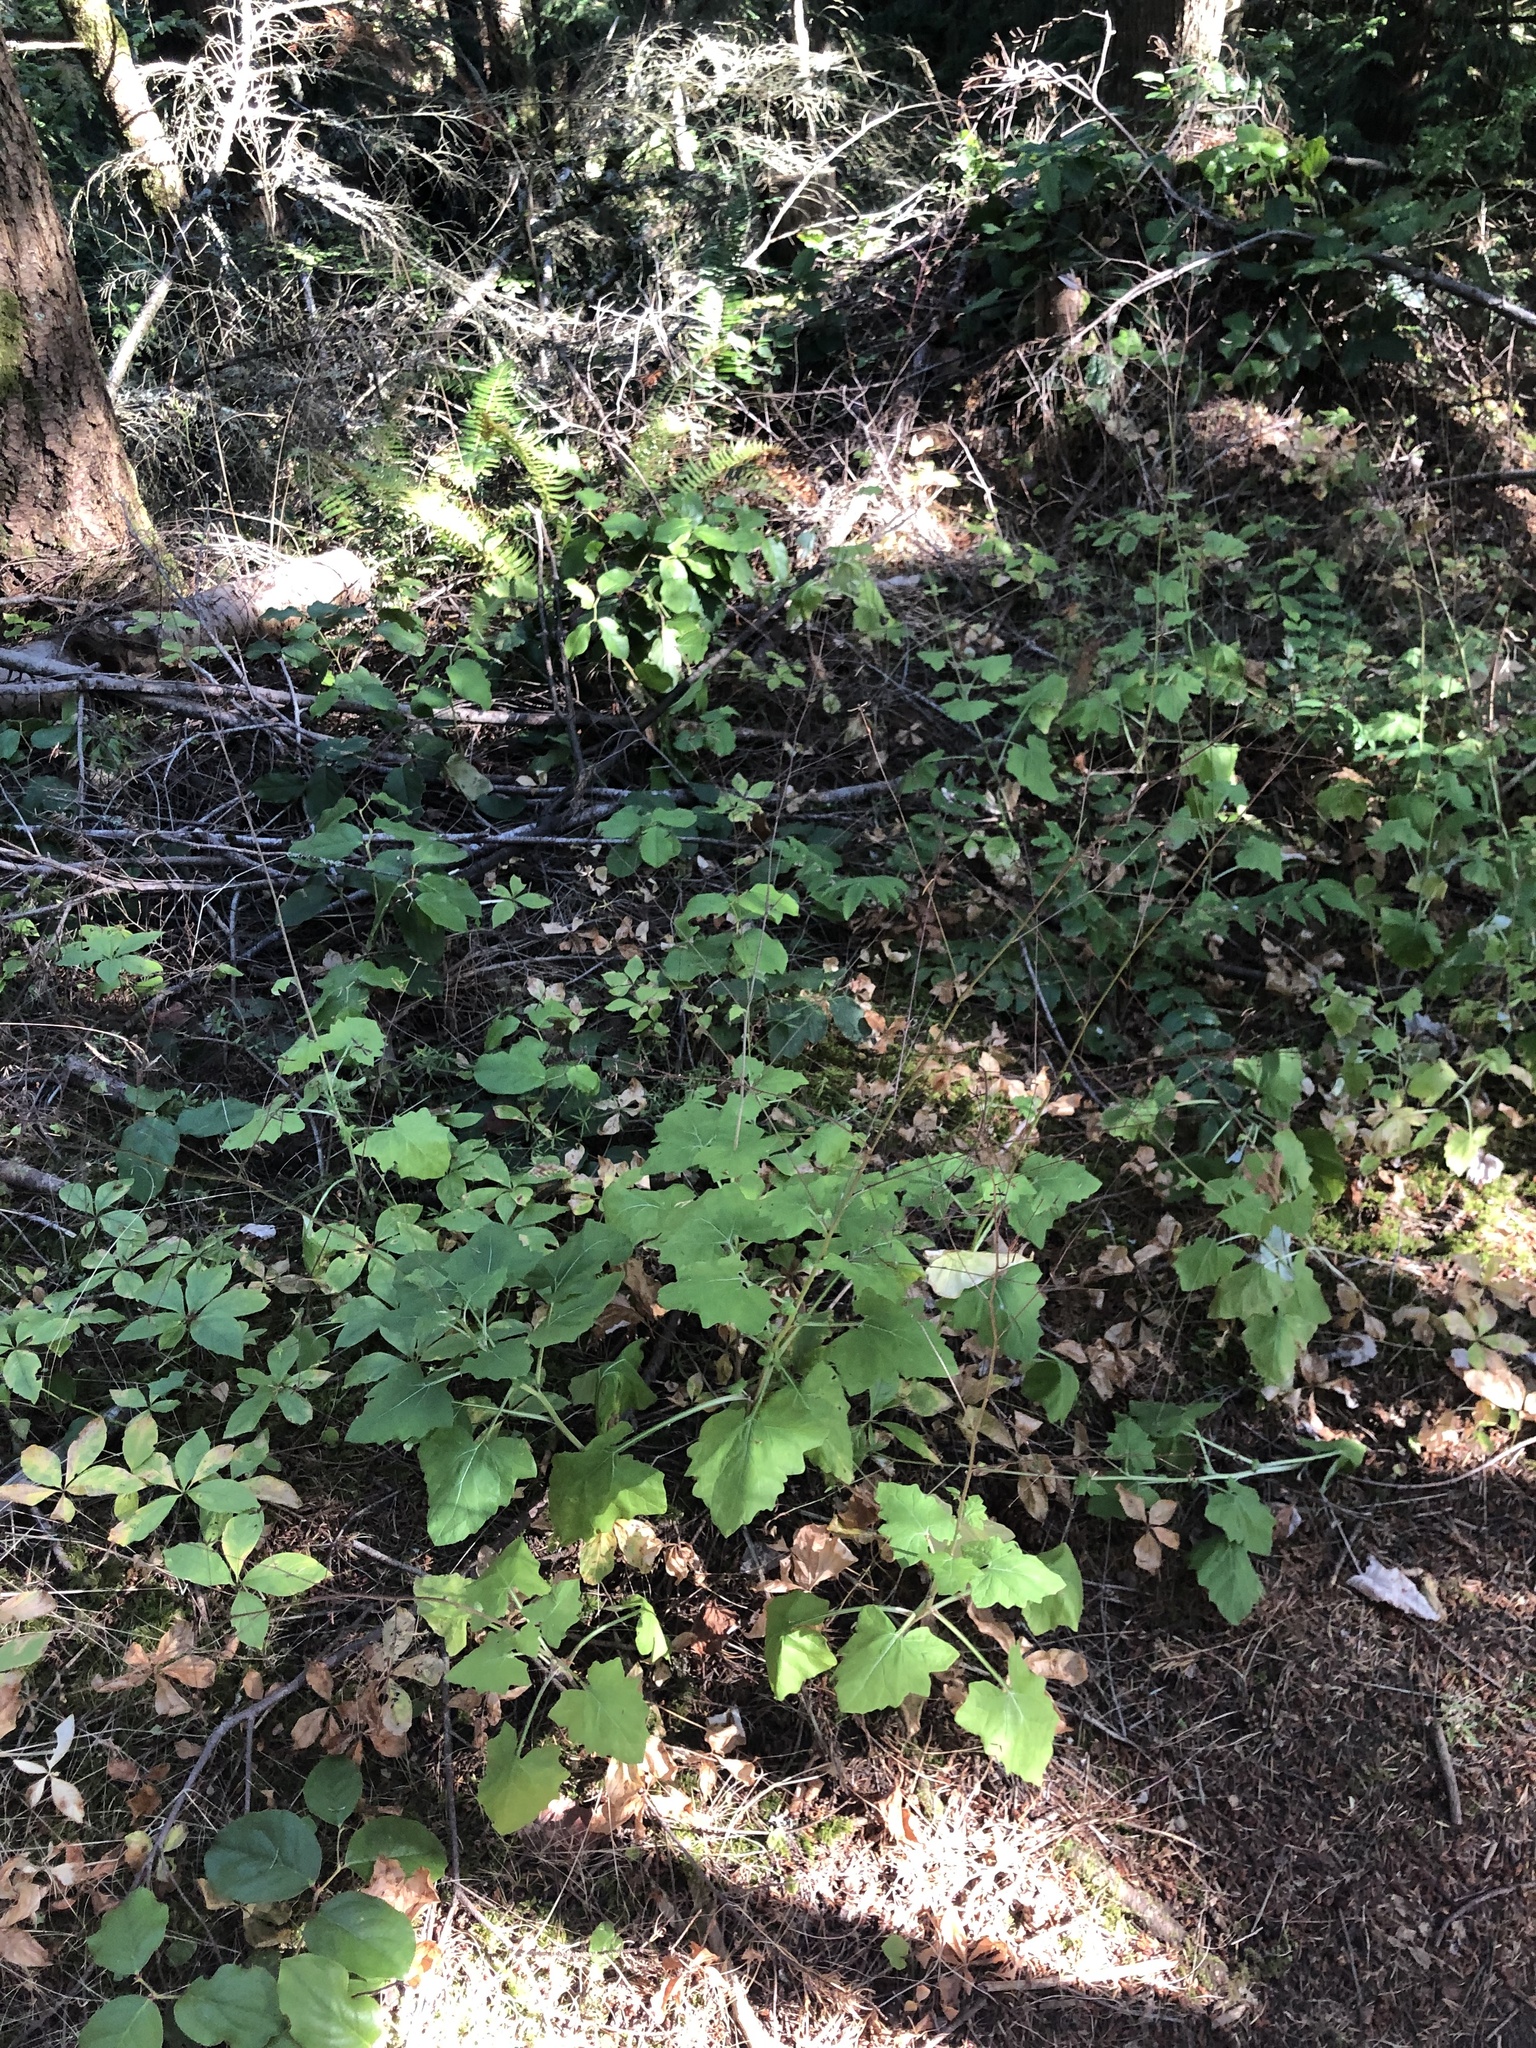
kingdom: Plantae
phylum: Tracheophyta
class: Magnoliopsida
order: Asterales
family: Asteraceae
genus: Adenocaulon
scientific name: Adenocaulon bicolor
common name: Trailplant
